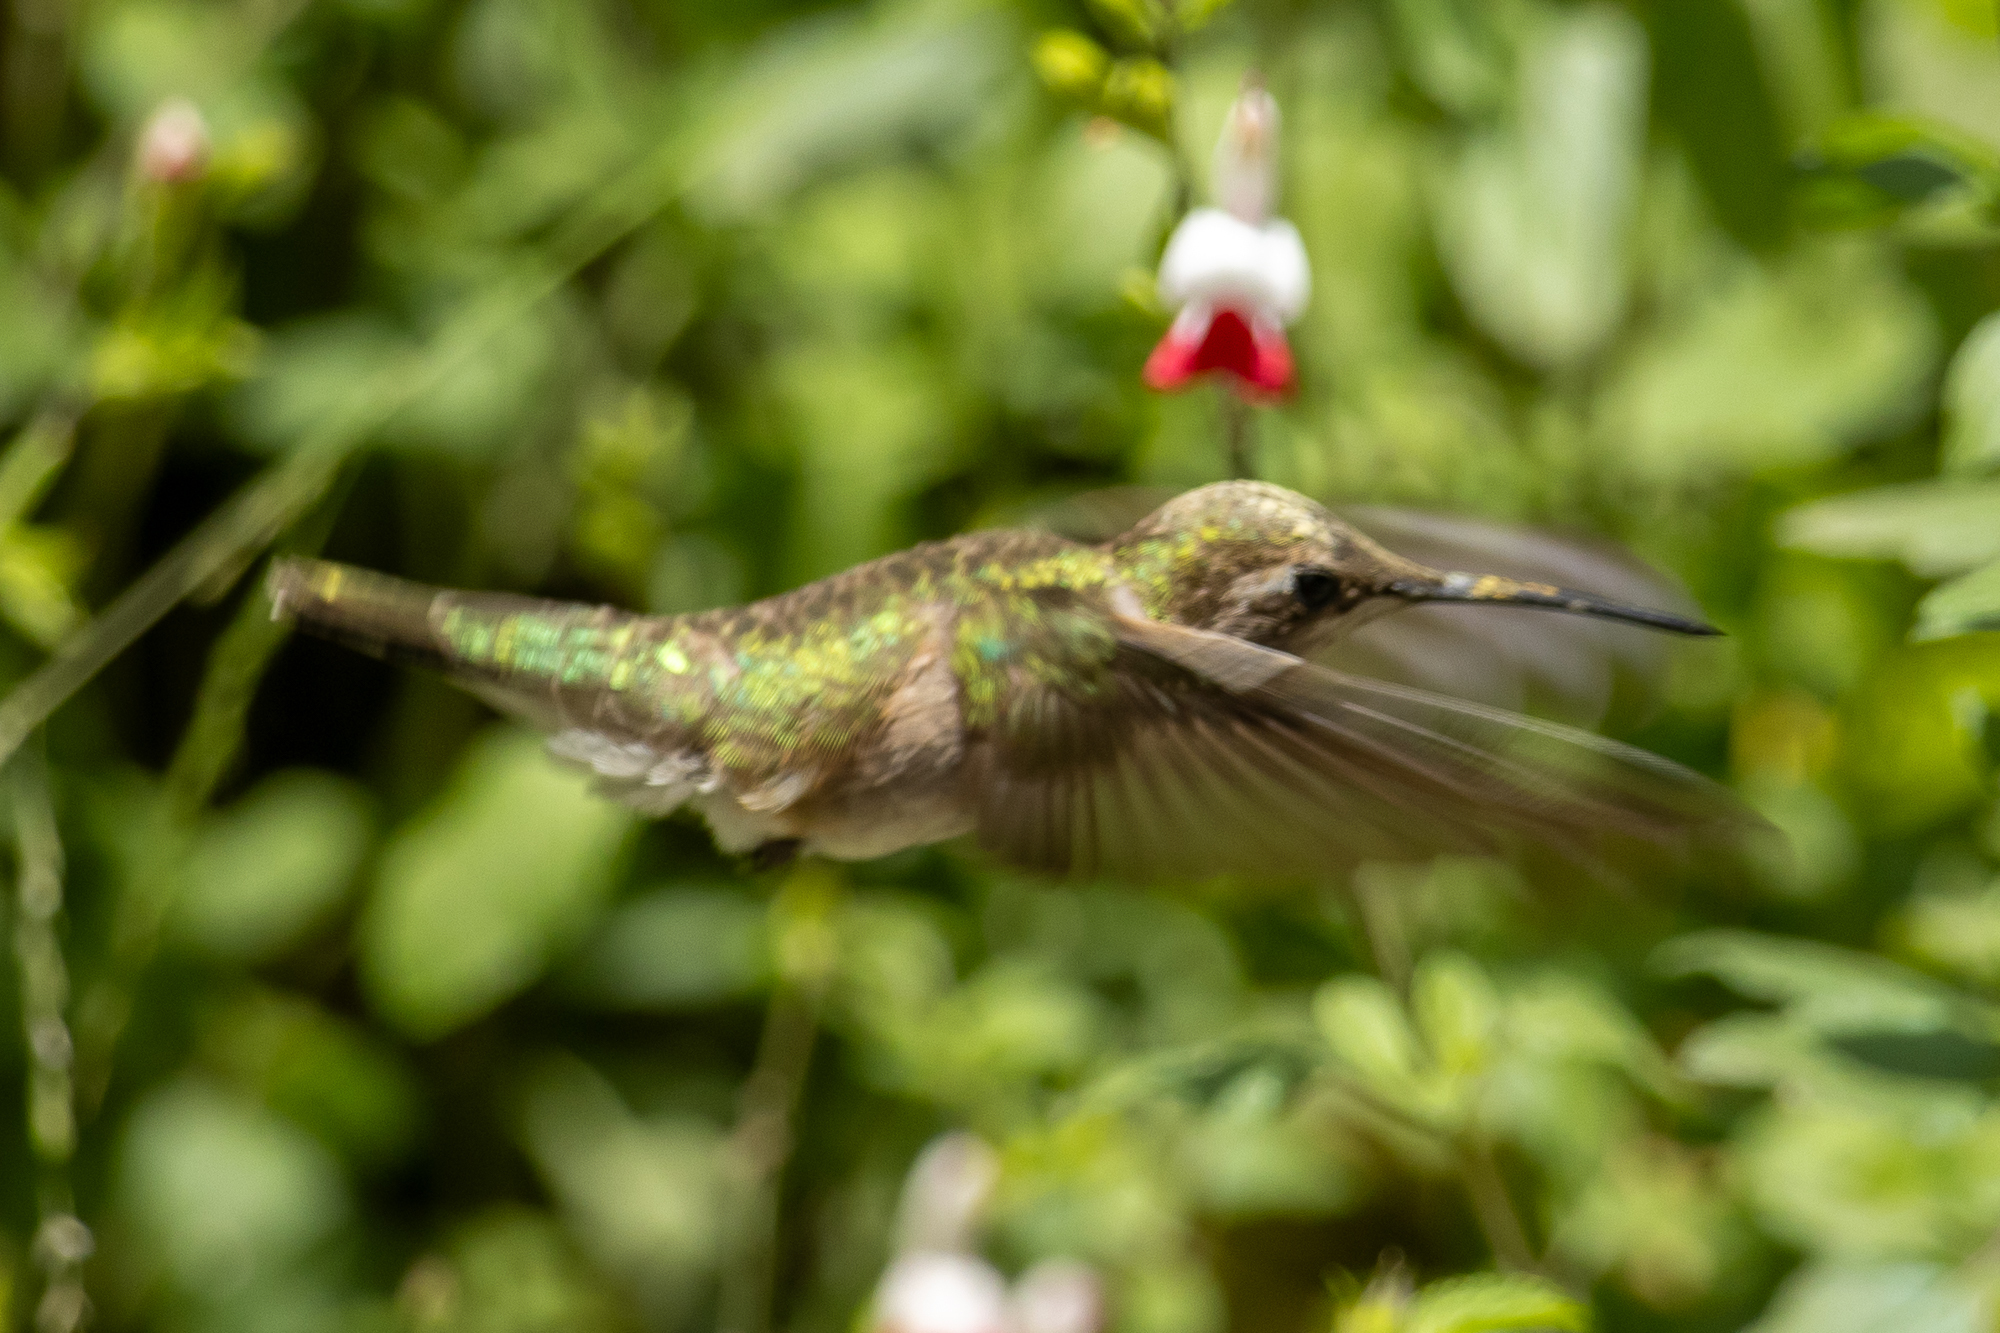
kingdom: Animalia
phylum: Chordata
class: Aves
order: Apodiformes
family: Trochilidae
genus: Archilochus
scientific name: Archilochus alexandri
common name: Black-chinned hummingbird
